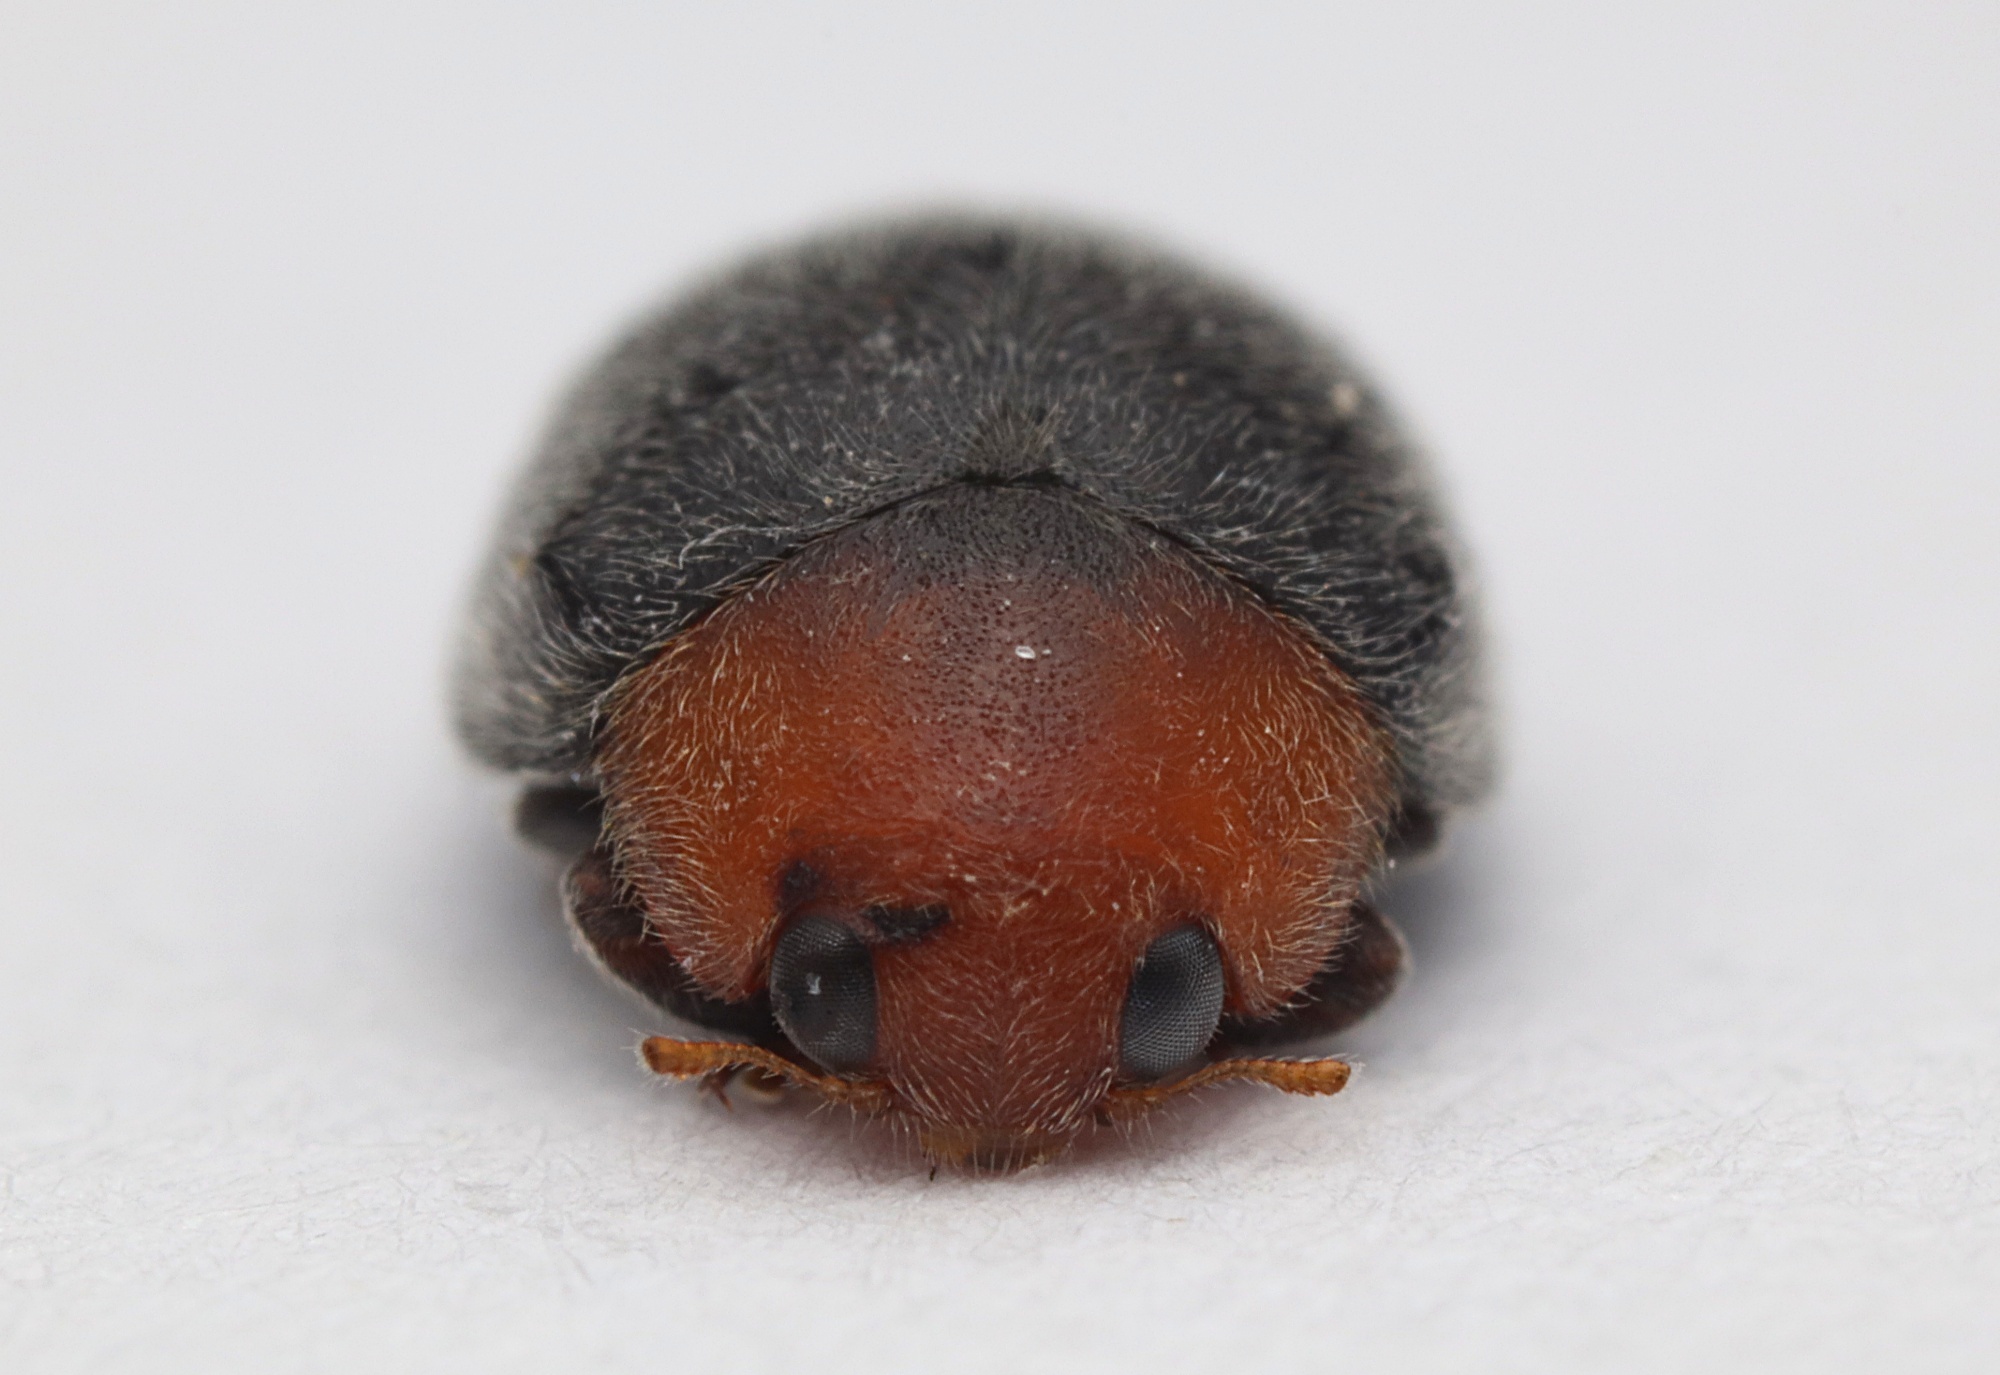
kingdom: Animalia
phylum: Arthropoda
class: Insecta
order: Coleoptera
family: Coccinellidae
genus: Cryptolaemus
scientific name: Cryptolaemus montrouzieri
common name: Mealybug destroyer
